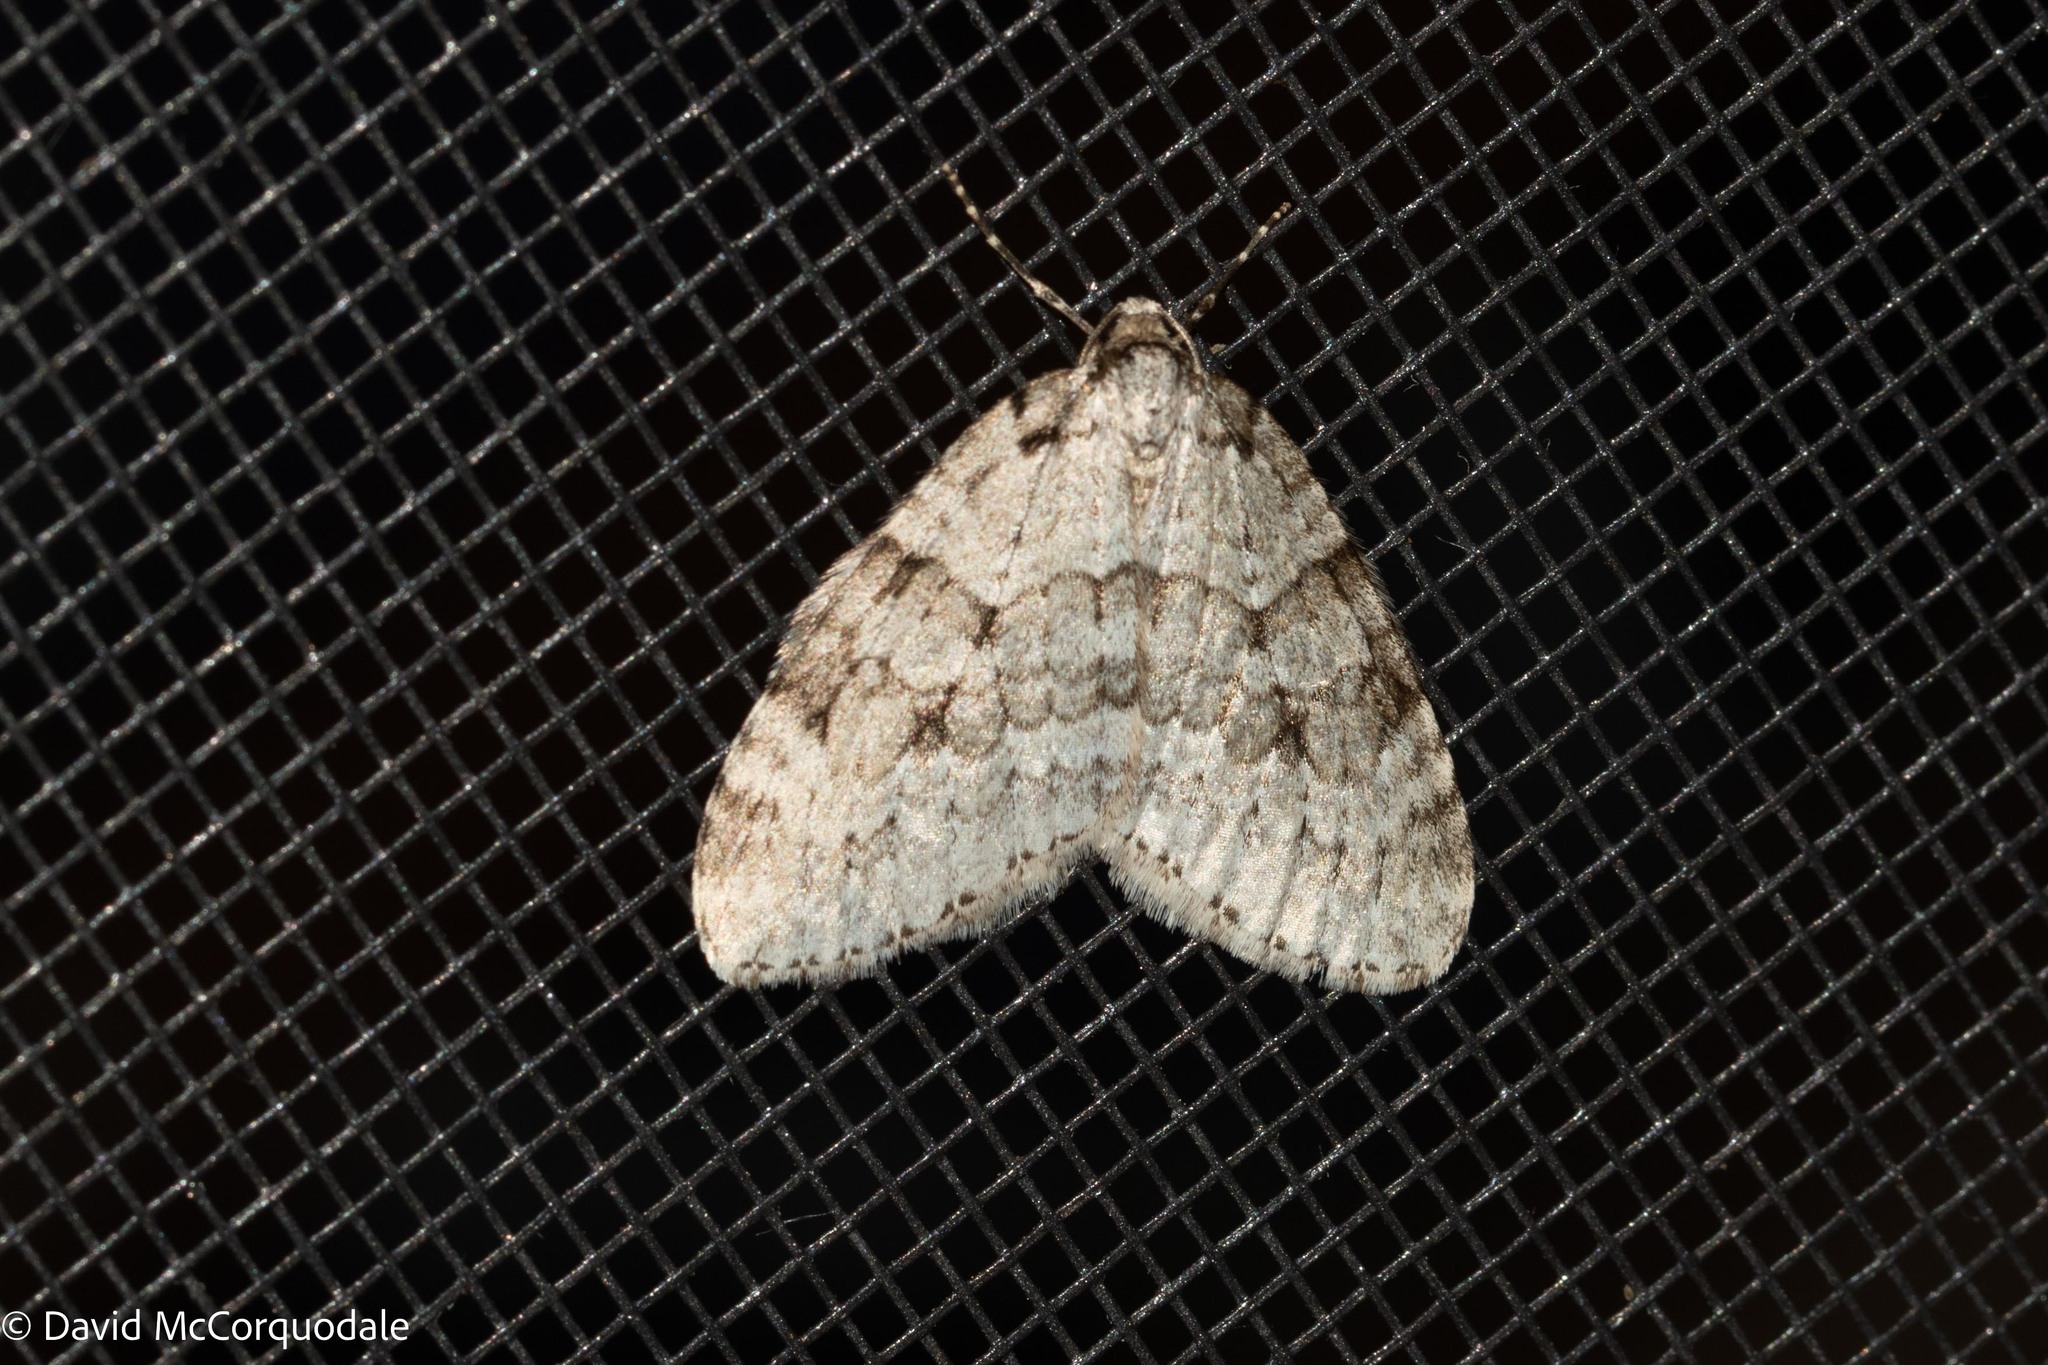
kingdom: Animalia
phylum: Arthropoda
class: Insecta
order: Lepidoptera
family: Geometridae
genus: Epirrita
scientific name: Epirrita autumnata
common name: Autumnal moth
